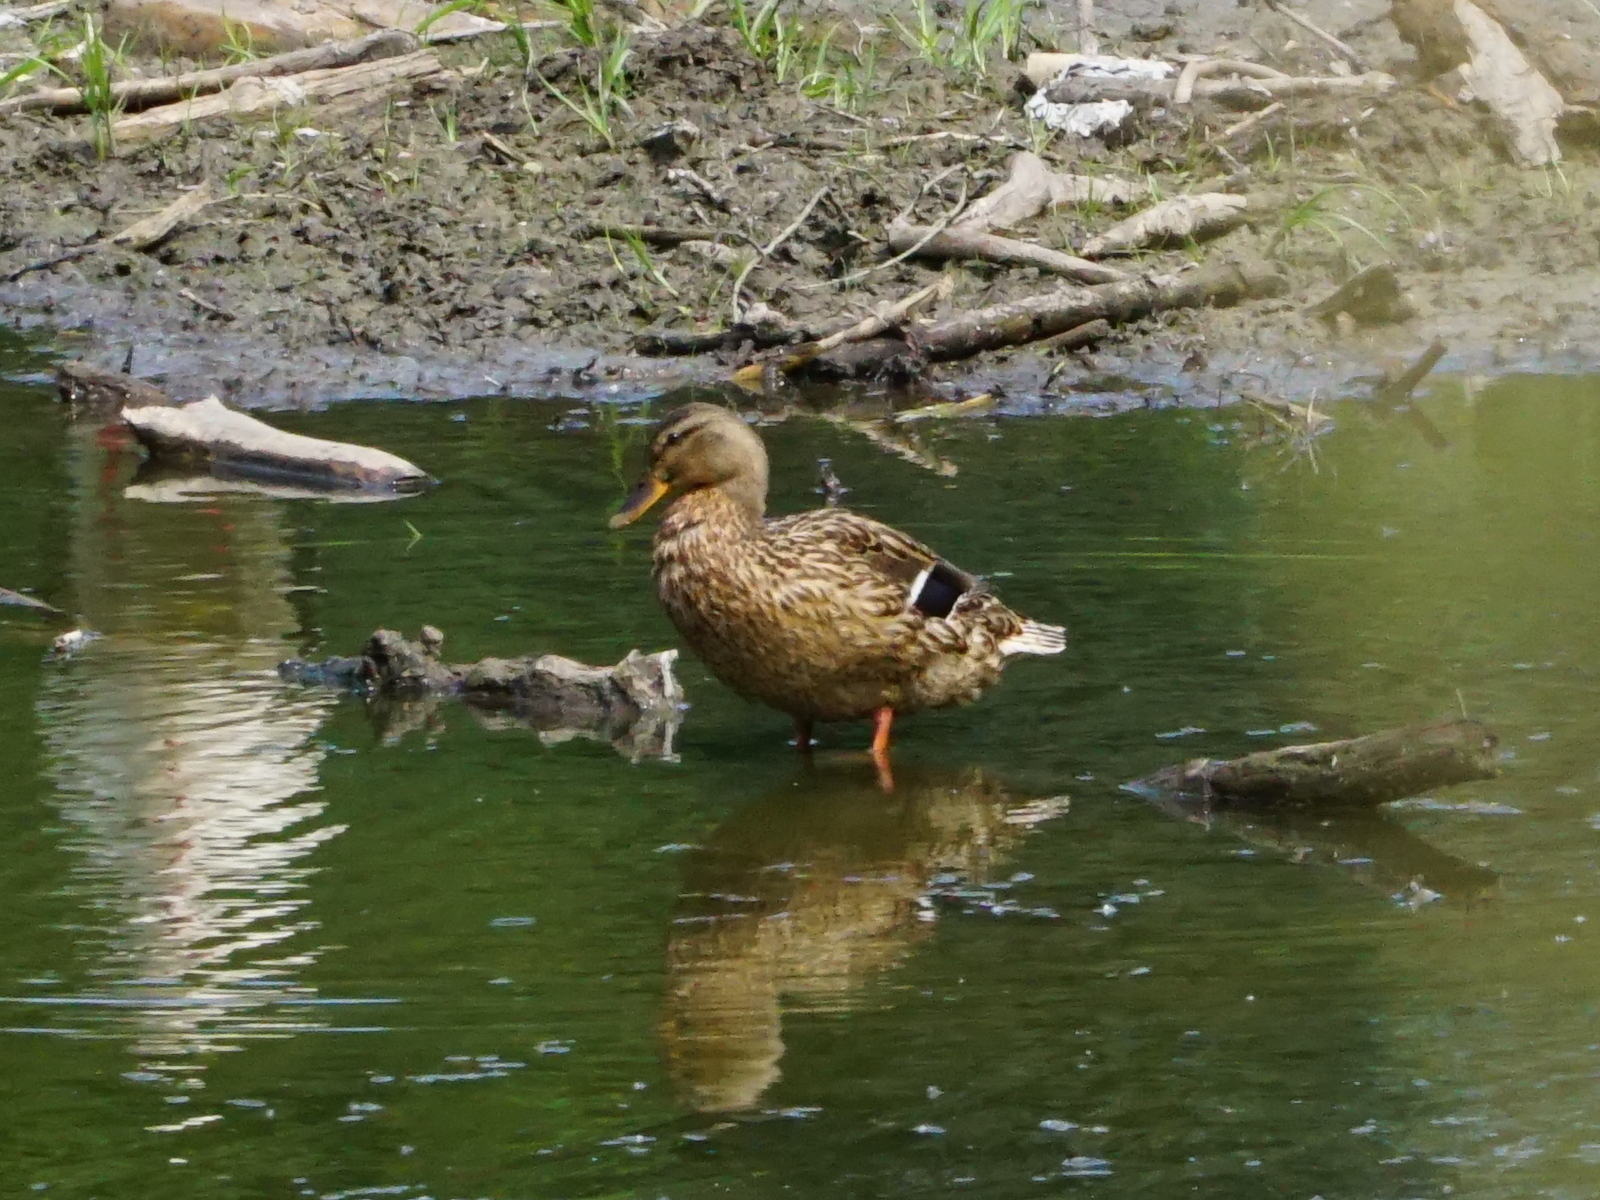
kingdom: Animalia
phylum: Chordata
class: Aves
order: Anseriformes
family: Anatidae
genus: Anas
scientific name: Anas platyrhynchos
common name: Mallard
